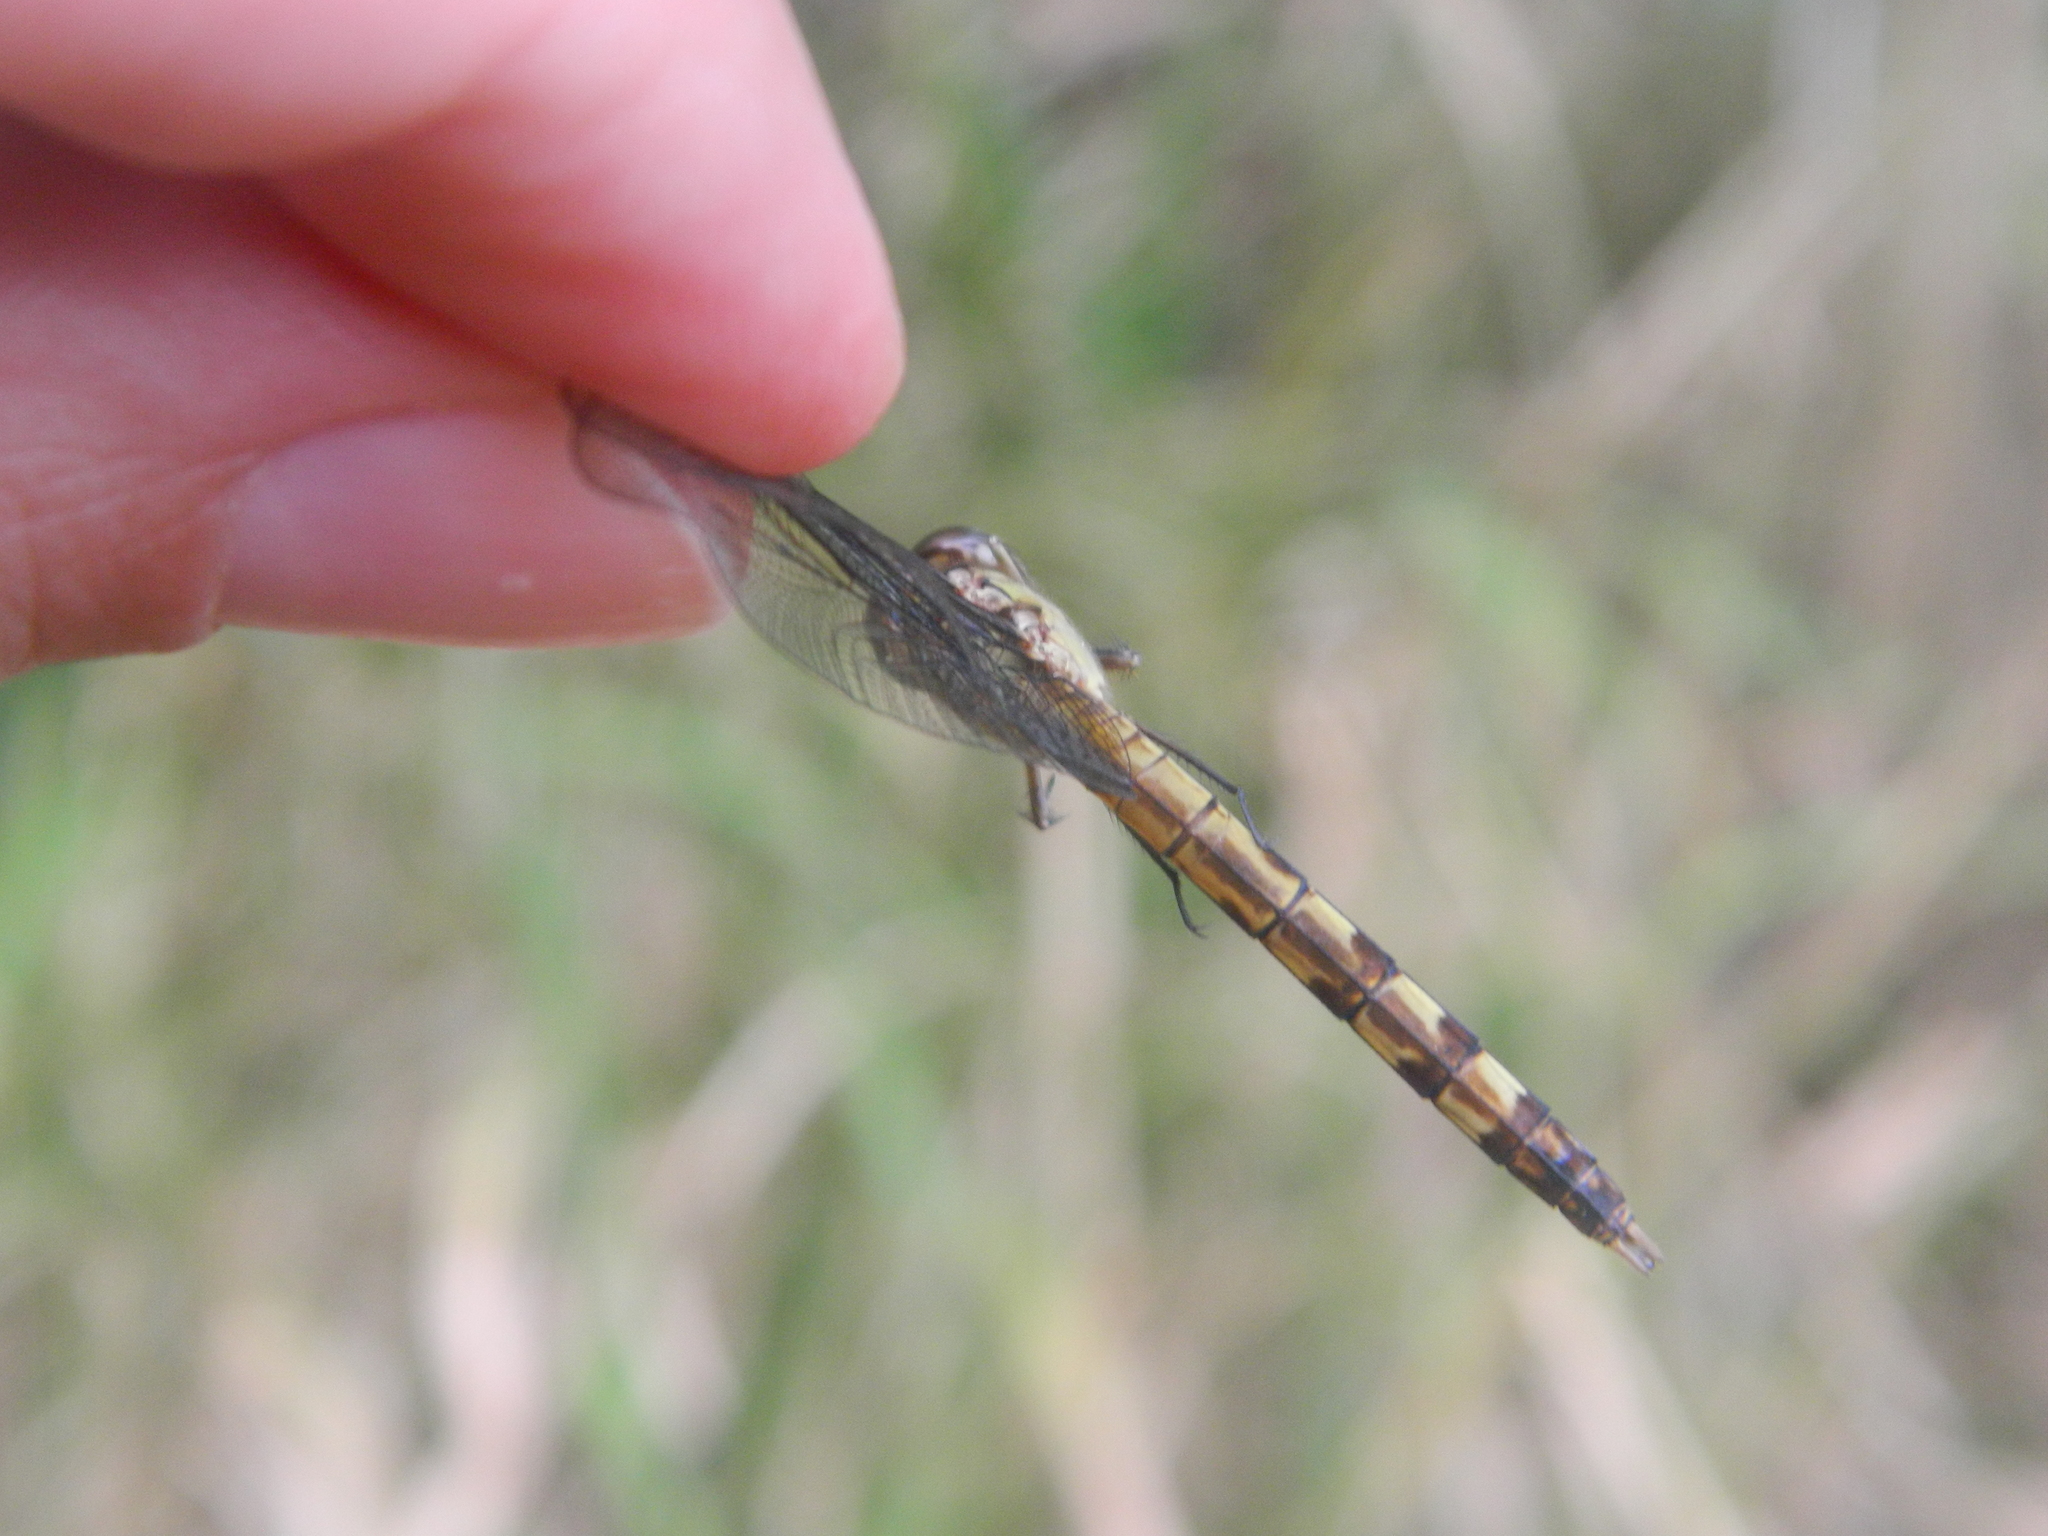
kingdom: Animalia
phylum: Arthropoda
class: Insecta
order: Odonata
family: Libellulidae
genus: Erythrodiplax
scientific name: Erythrodiplax umbrata
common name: Band-winged dragonlet
